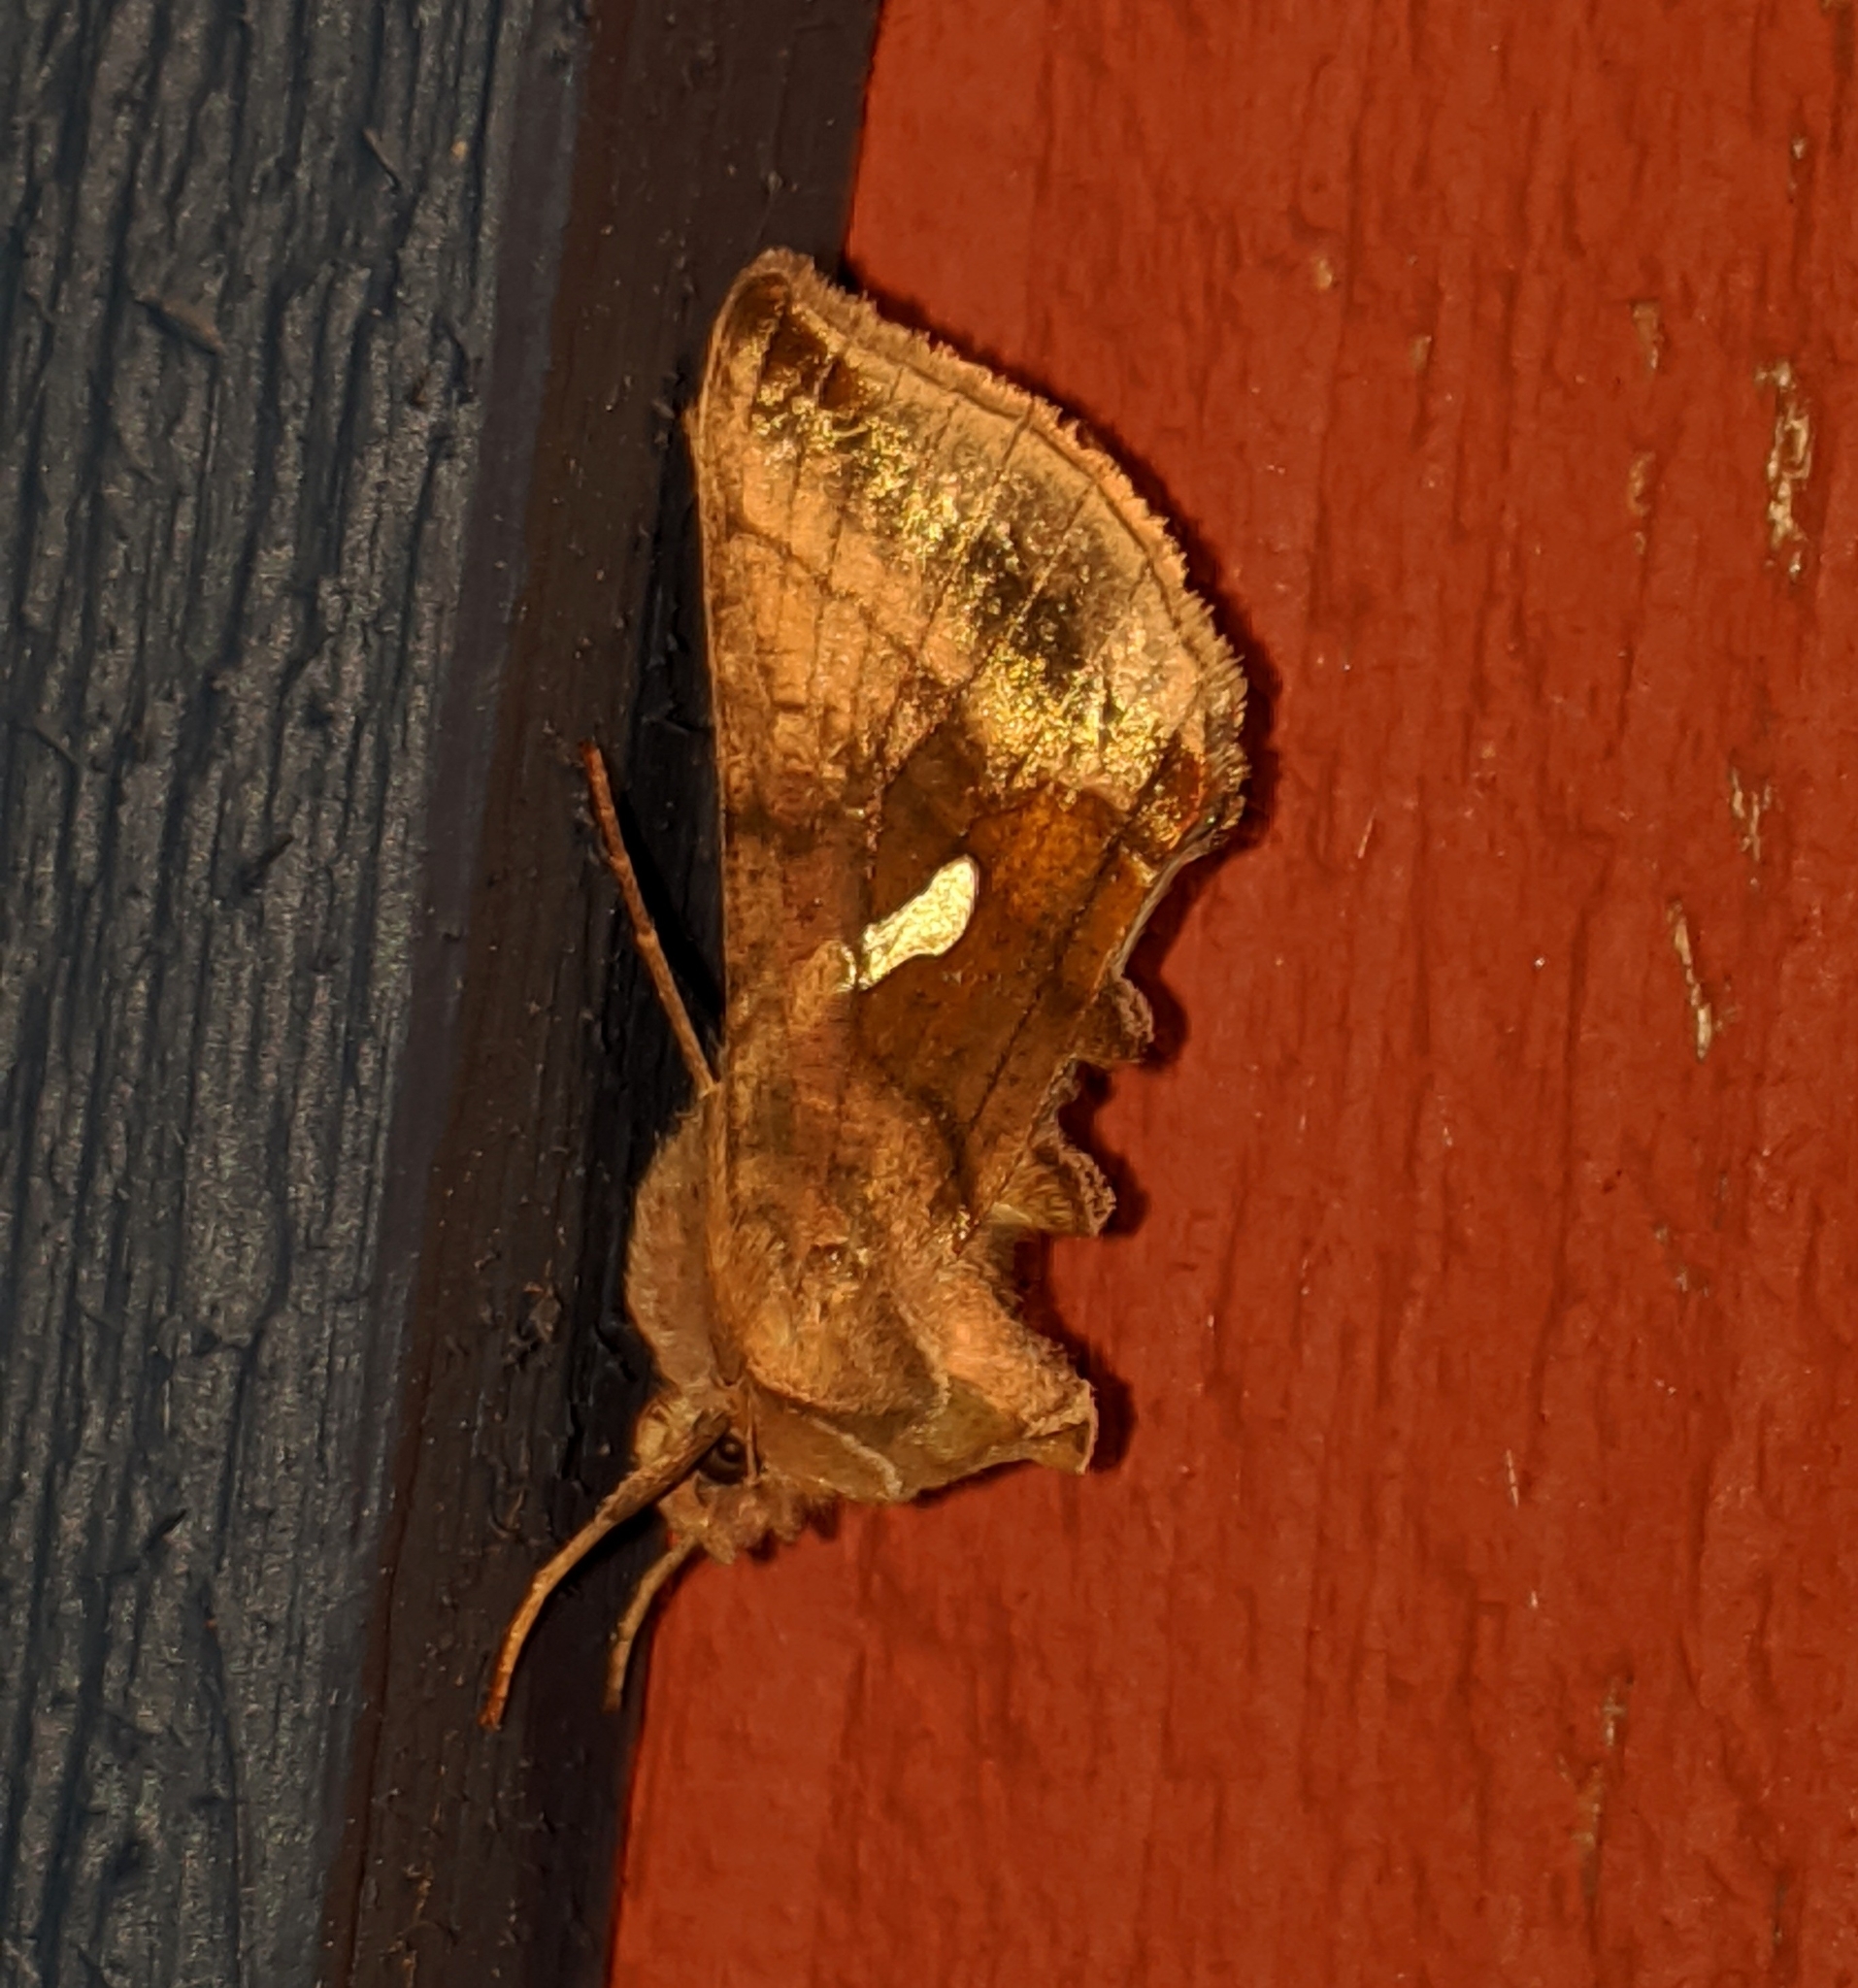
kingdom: Animalia
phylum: Arthropoda
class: Insecta
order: Lepidoptera
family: Noctuidae
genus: Autographa
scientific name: Autographa metallica
